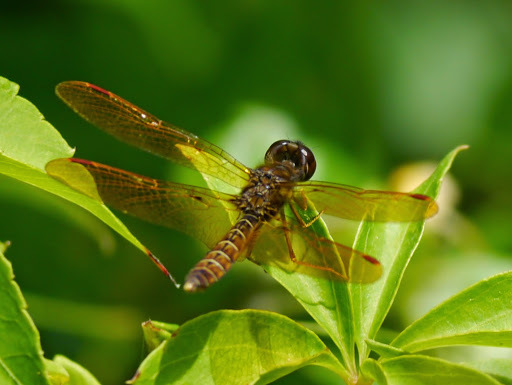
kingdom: Animalia
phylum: Arthropoda
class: Insecta
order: Odonata
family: Libellulidae
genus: Perithemis
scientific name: Perithemis tenera
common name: Eastern amberwing
